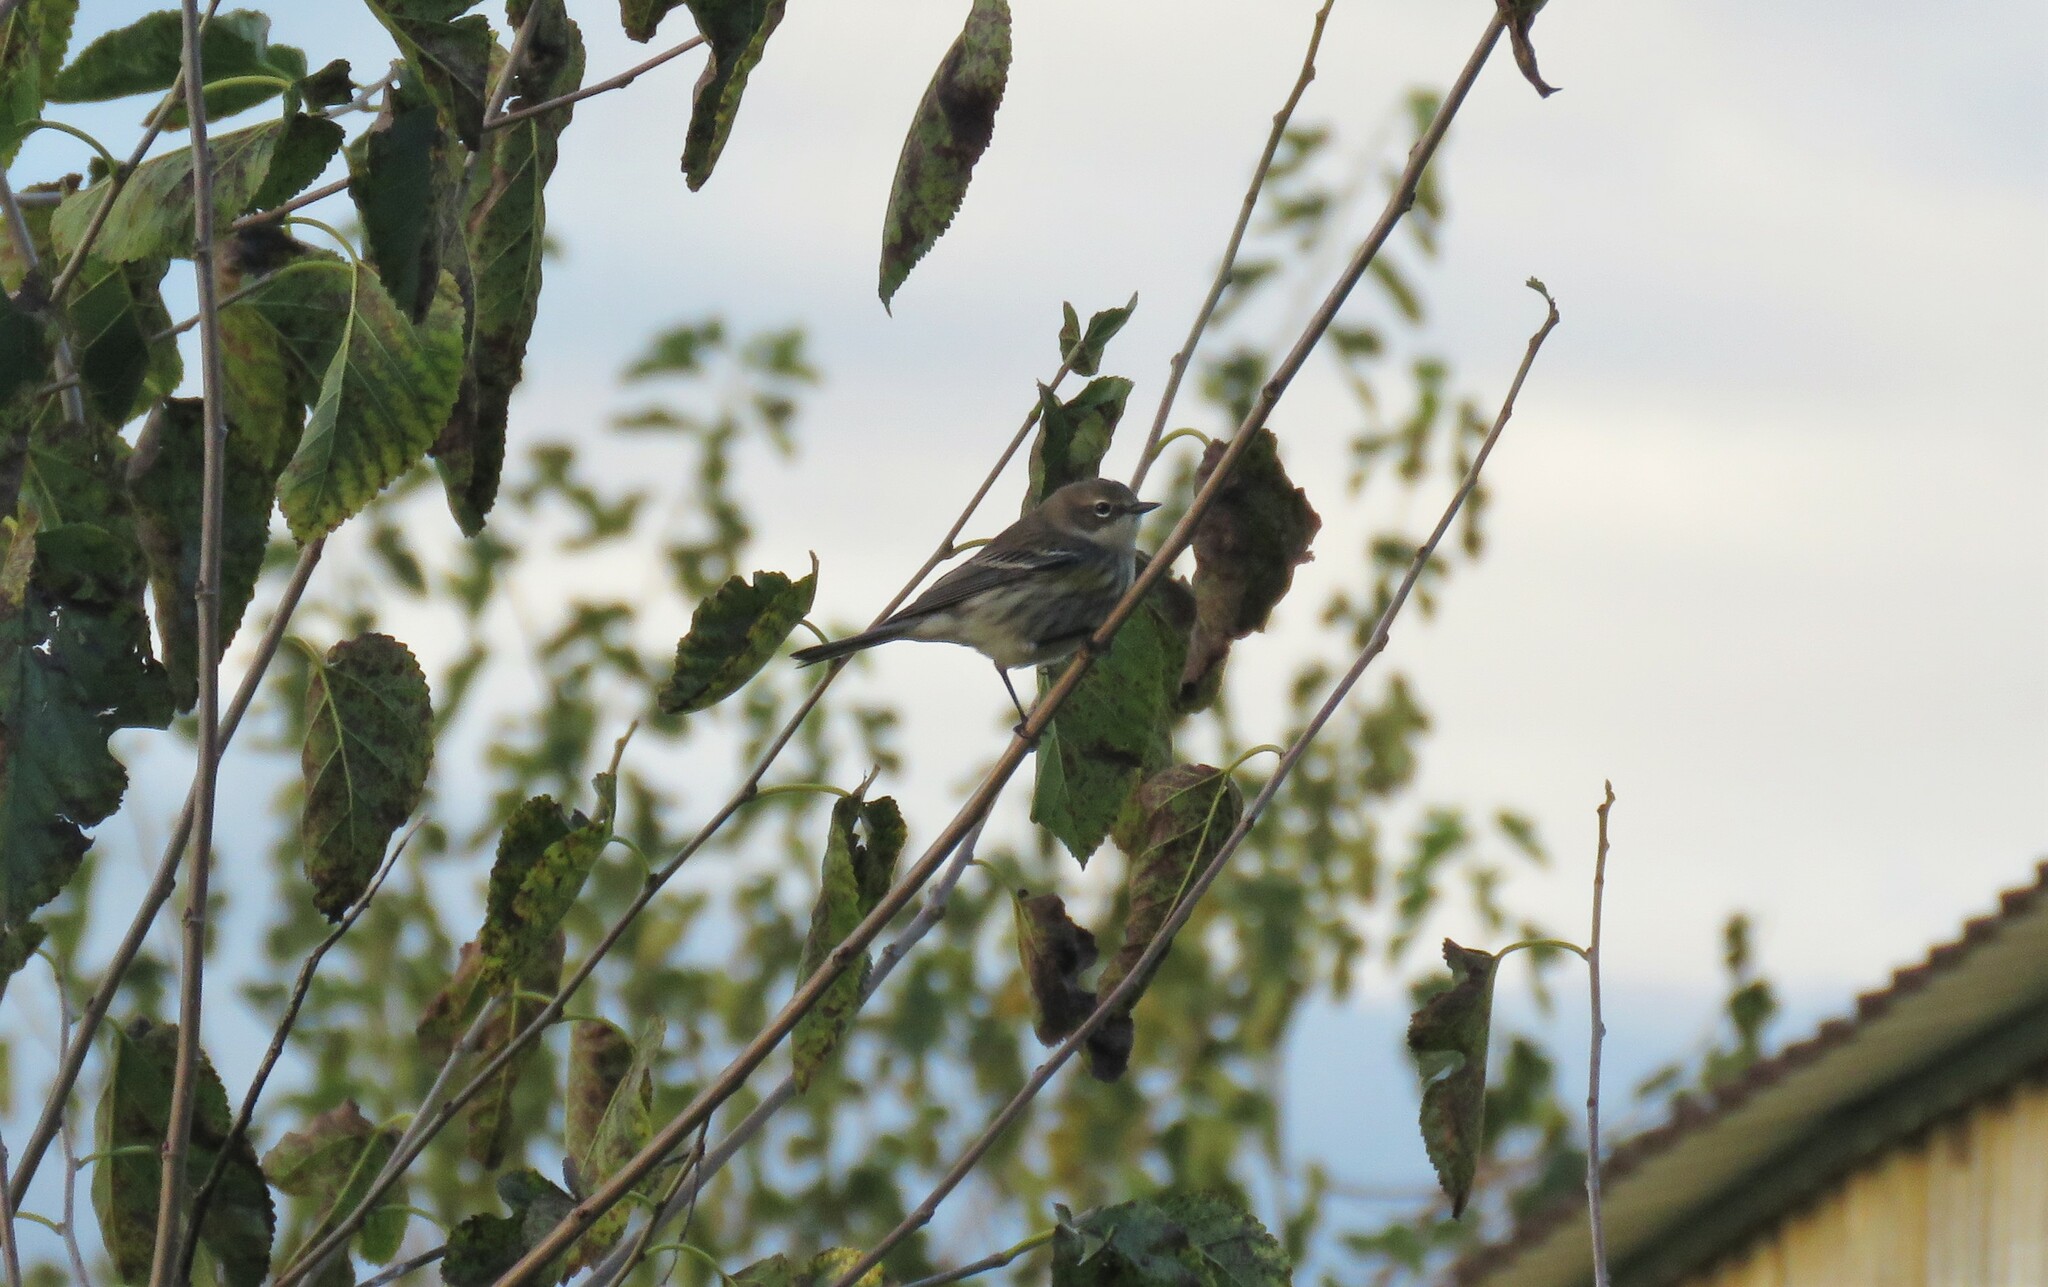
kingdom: Animalia
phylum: Chordata
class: Aves
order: Passeriformes
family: Parulidae
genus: Setophaga
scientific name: Setophaga coronata
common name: Myrtle warbler
